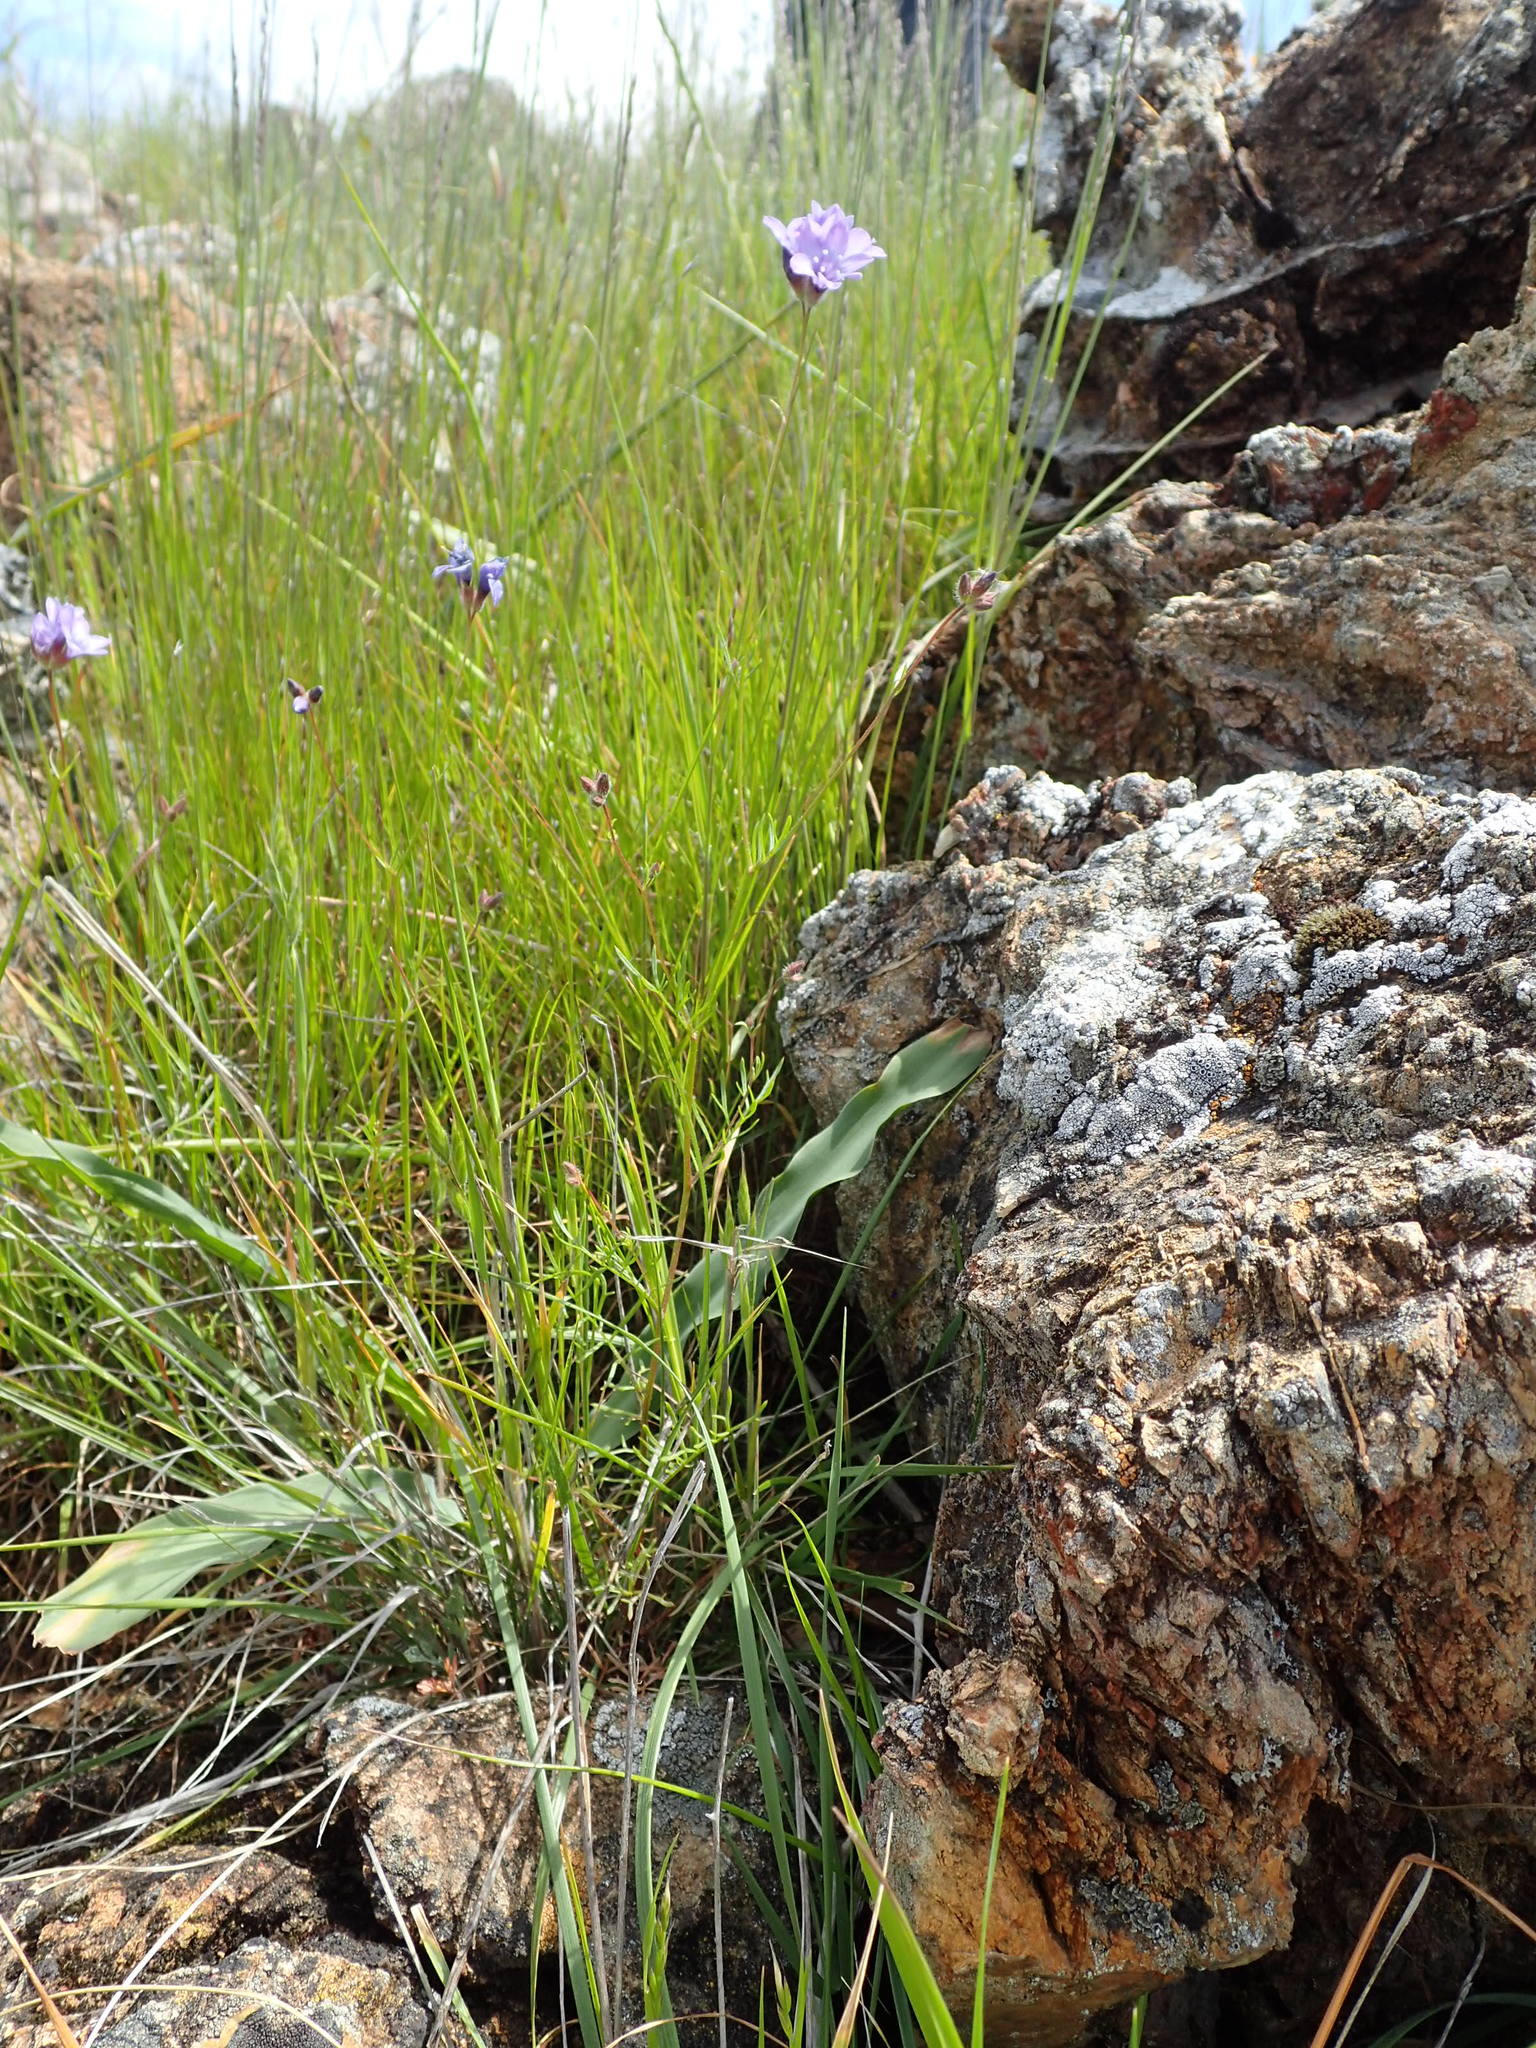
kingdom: Plantae
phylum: Tracheophyta
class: Magnoliopsida
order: Ericales
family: Polemoniaceae
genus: Gilia
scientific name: Gilia achilleifolia
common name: California gily-flower
